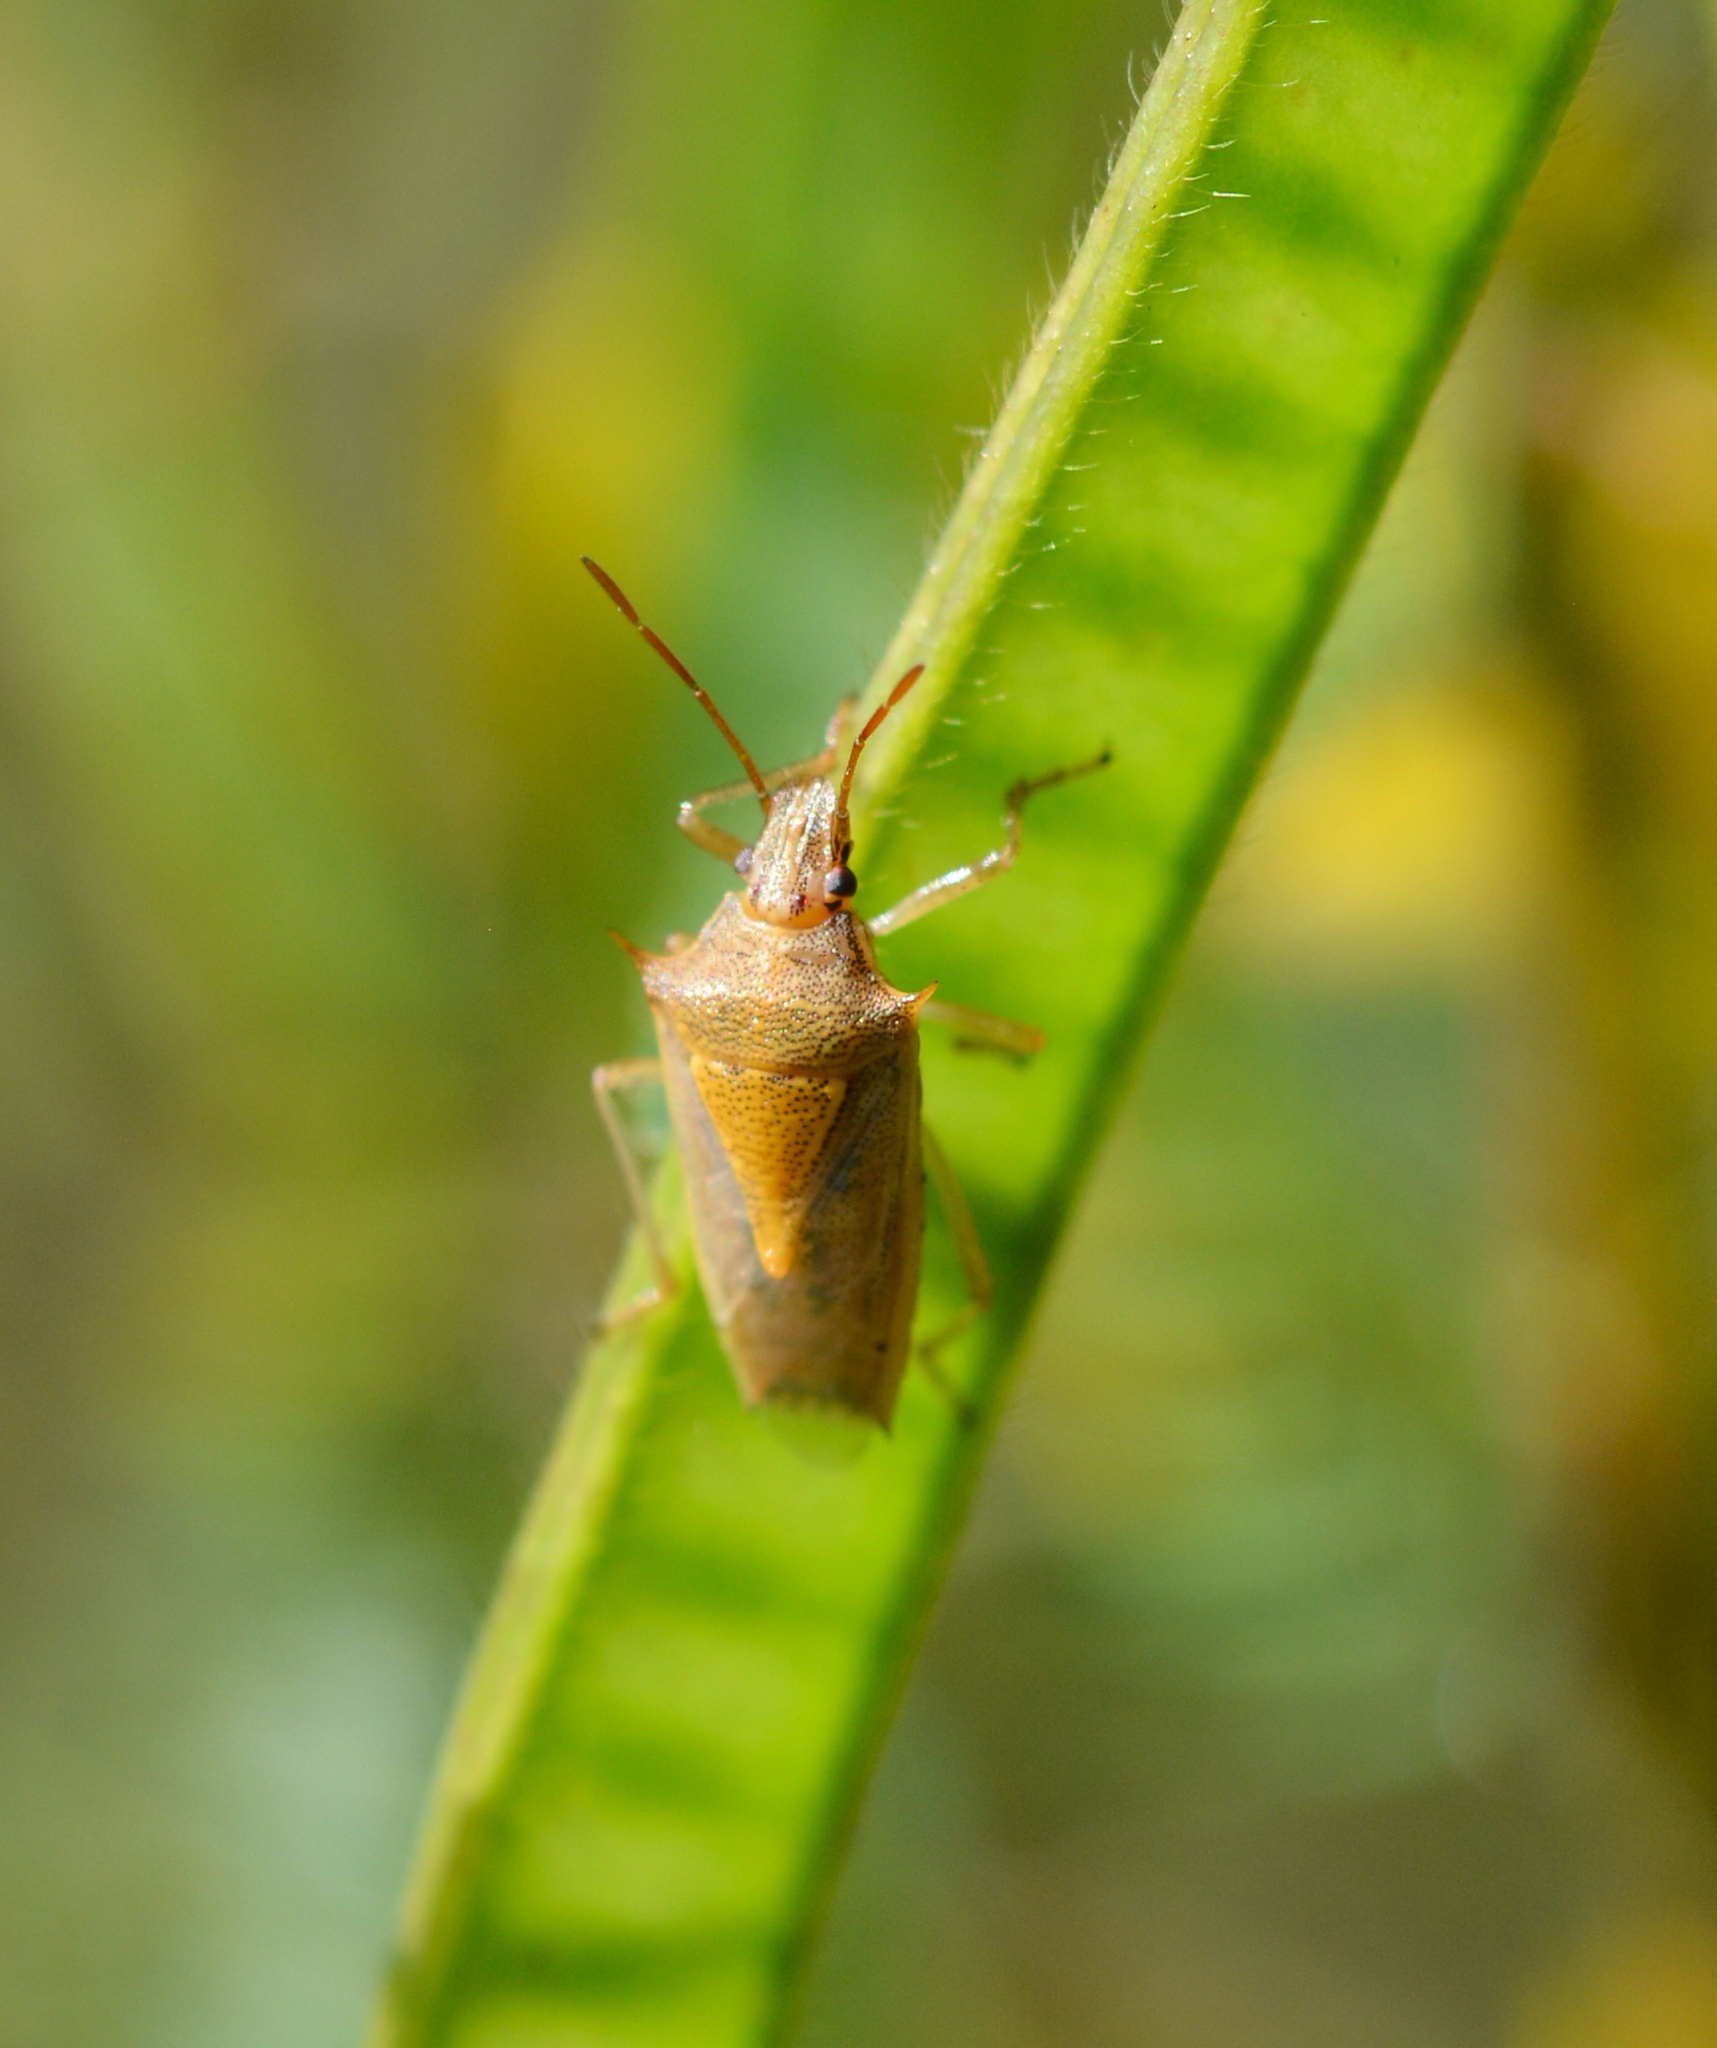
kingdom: Animalia
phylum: Arthropoda
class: Insecta
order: Hemiptera
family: Pentatomidae
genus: Oebalus
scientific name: Oebalus pugnax
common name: Rice stink bug
